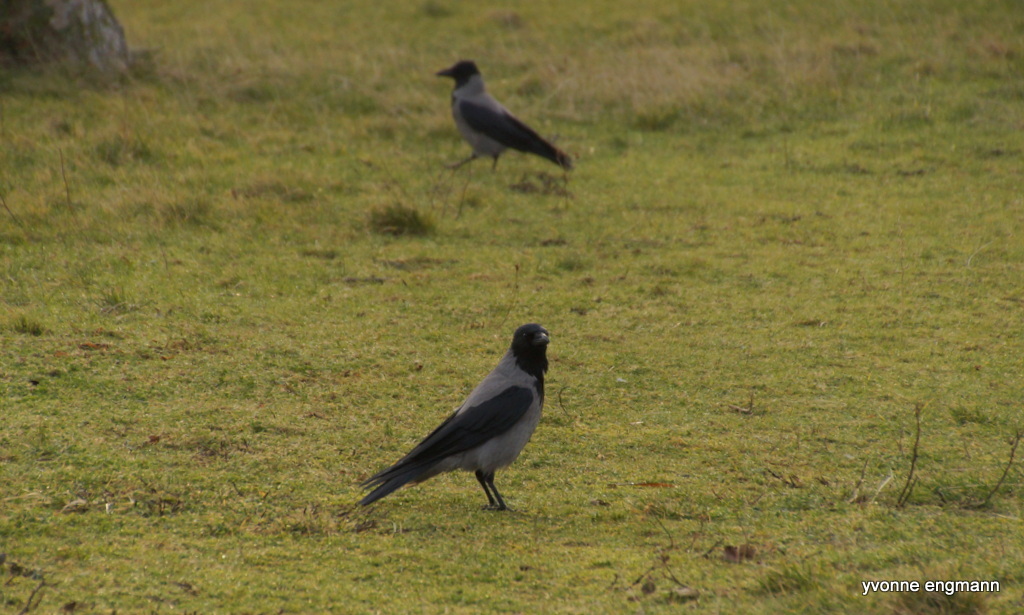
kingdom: Animalia
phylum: Chordata
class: Aves
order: Passeriformes
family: Corvidae
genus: Corvus
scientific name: Corvus cornix
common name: Hooded crow
